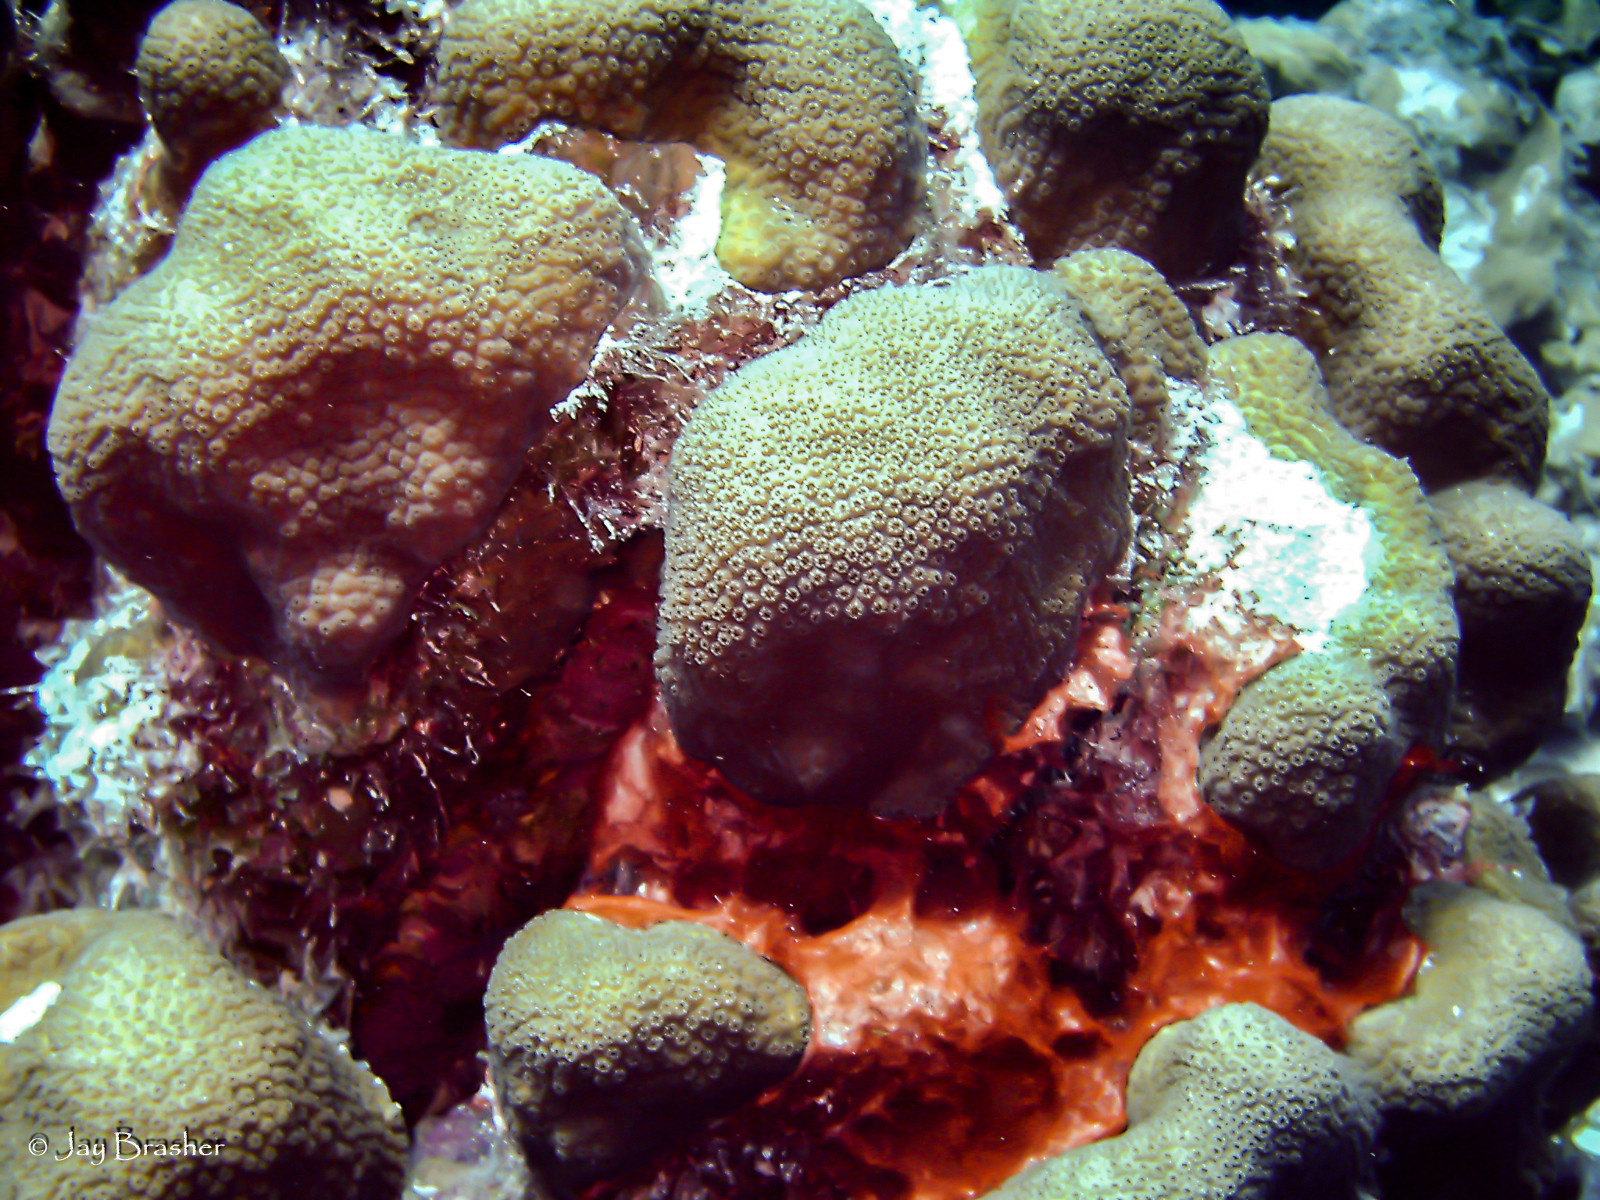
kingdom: Animalia
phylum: Cnidaria
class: Anthozoa
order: Scleractinia
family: Merulinidae
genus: Orbicella
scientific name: Orbicella annularis
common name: Boulder star coral
